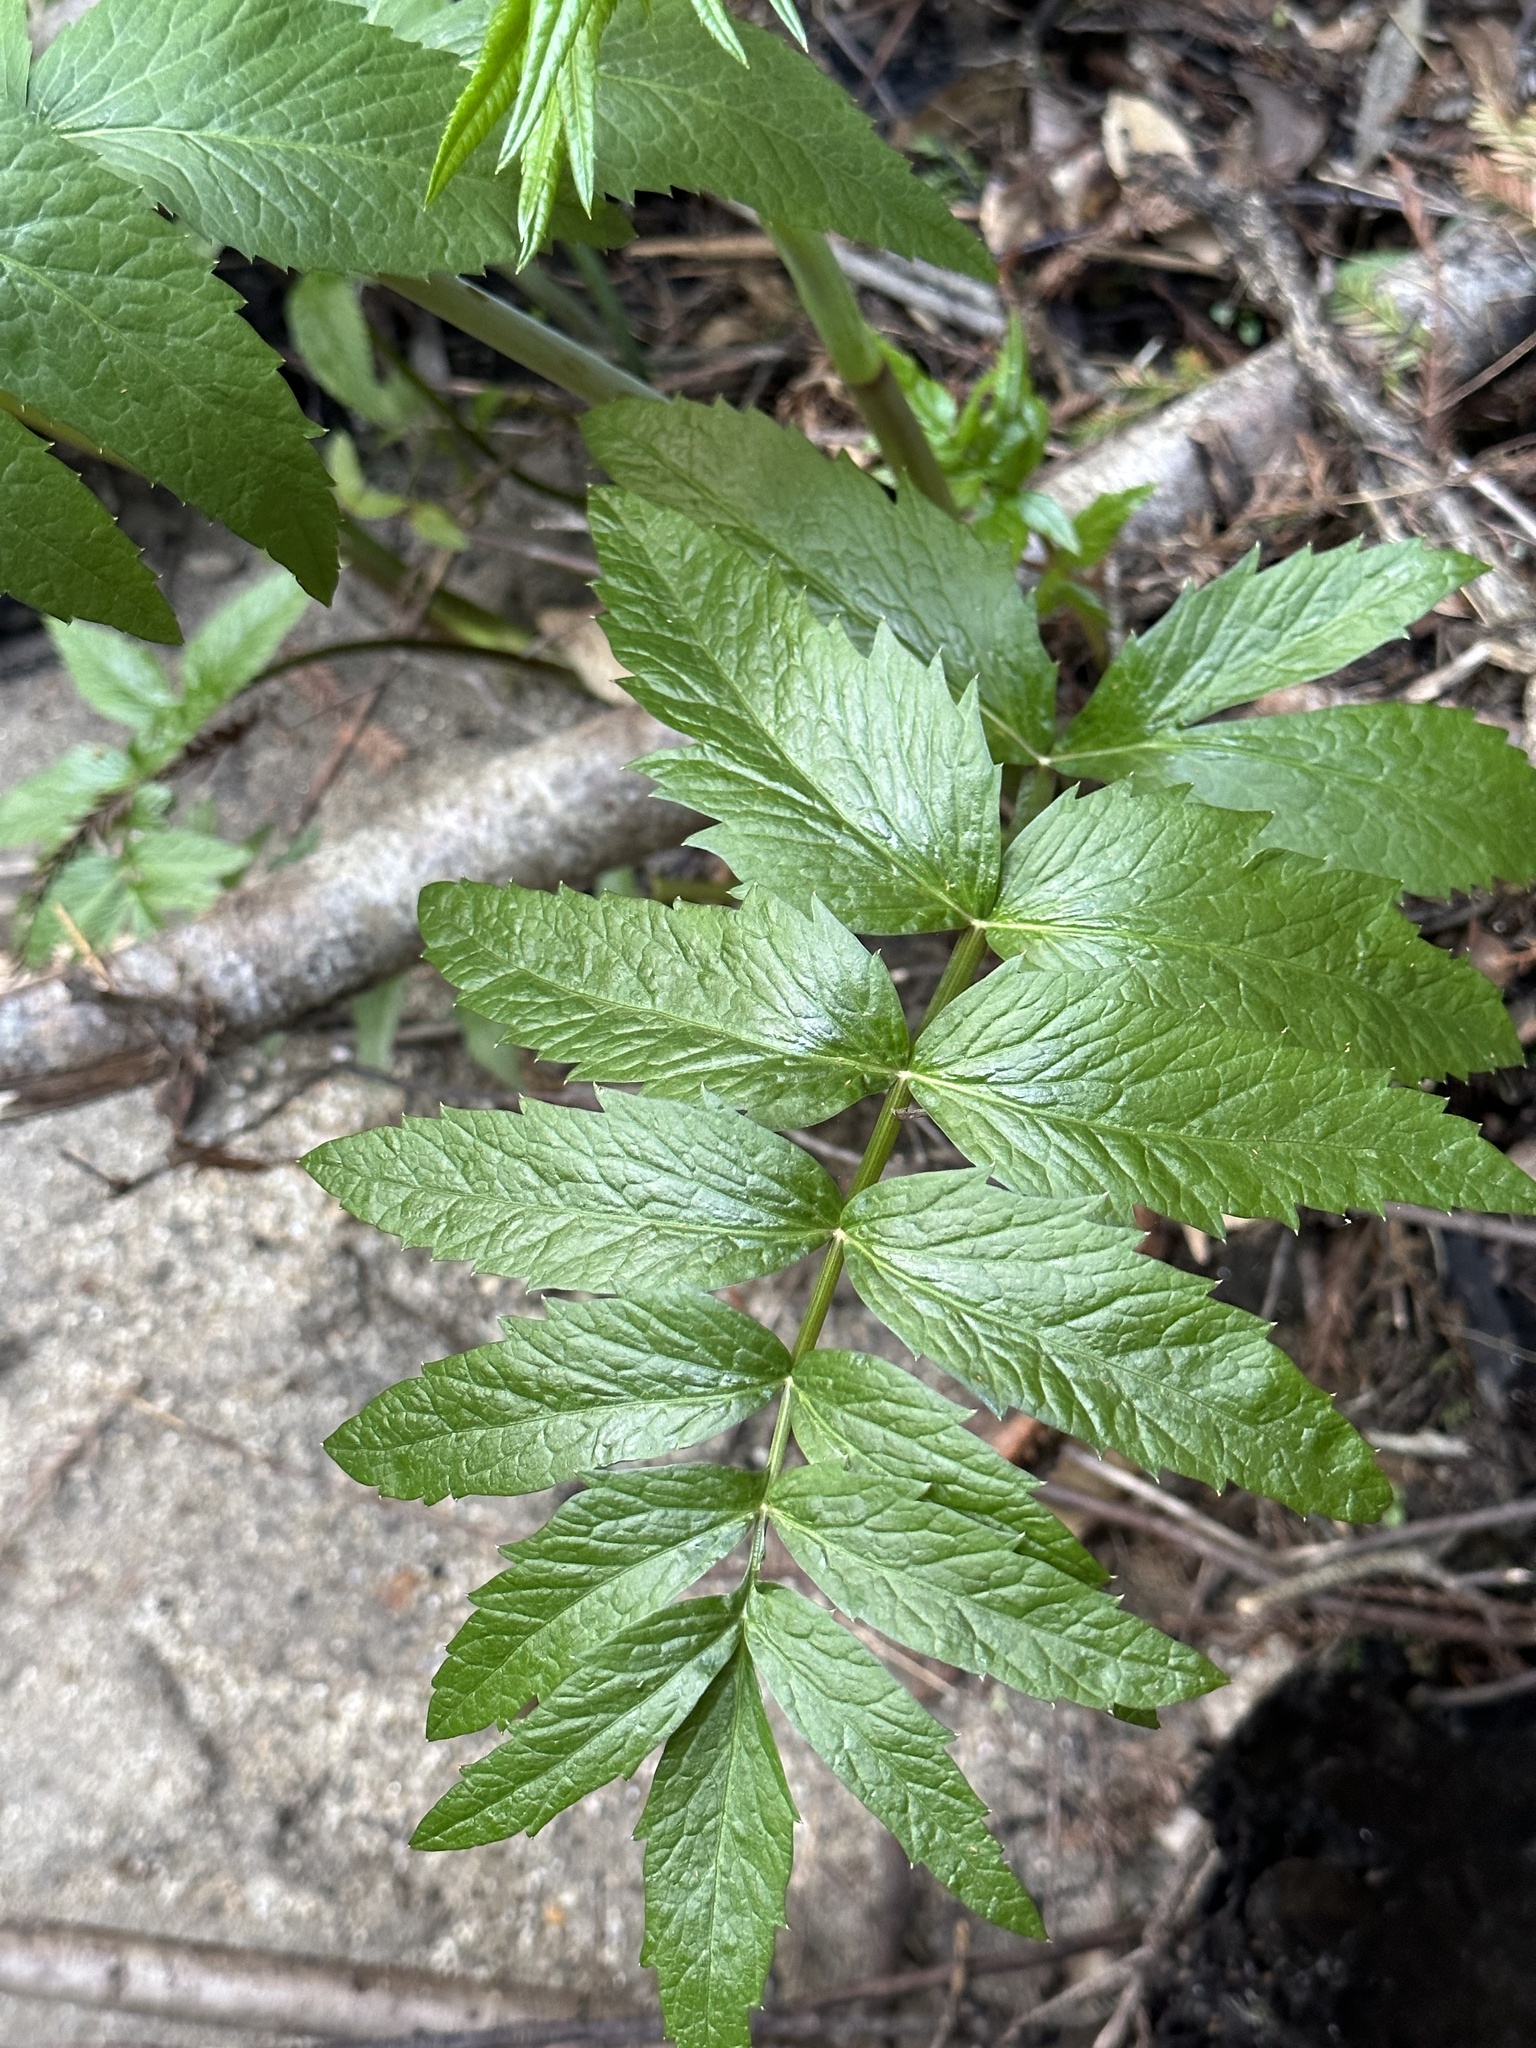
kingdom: Plantae
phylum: Tracheophyta
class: Magnoliopsida
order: Apiales
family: Apiaceae
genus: Cicuta
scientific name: Cicuta douglasii
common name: Western water-hemlock
